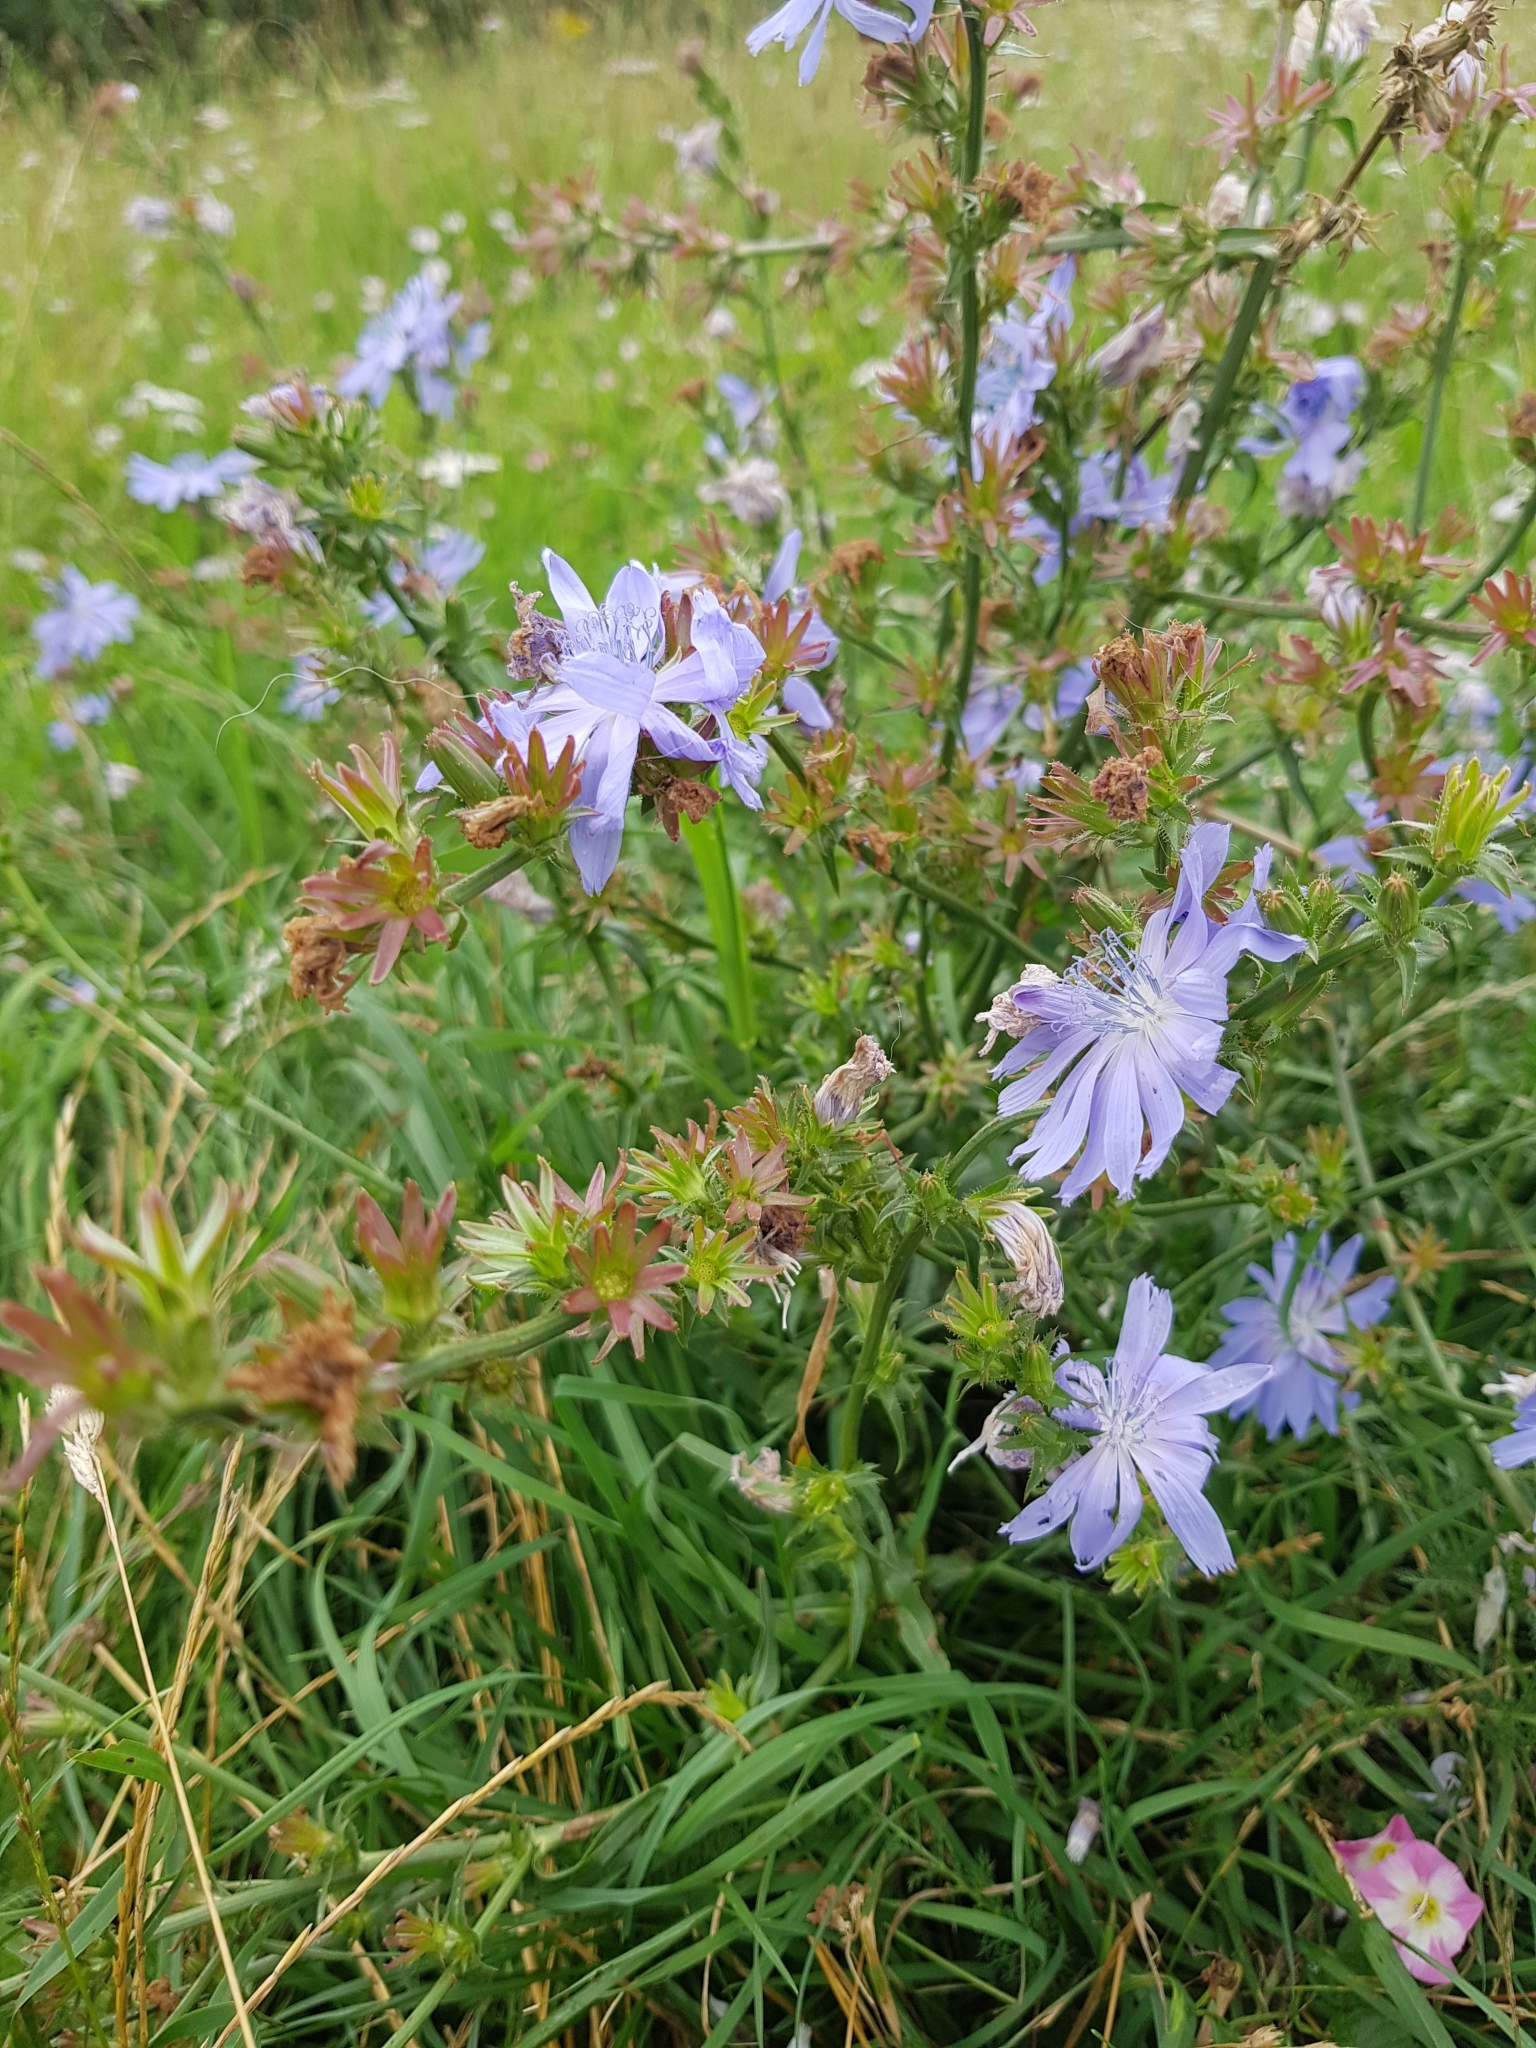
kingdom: Plantae
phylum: Tracheophyta
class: Magnoliopsida
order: Asterales
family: Asteraceae
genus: Cichorium
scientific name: Cichorium intybus
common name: Chicory
